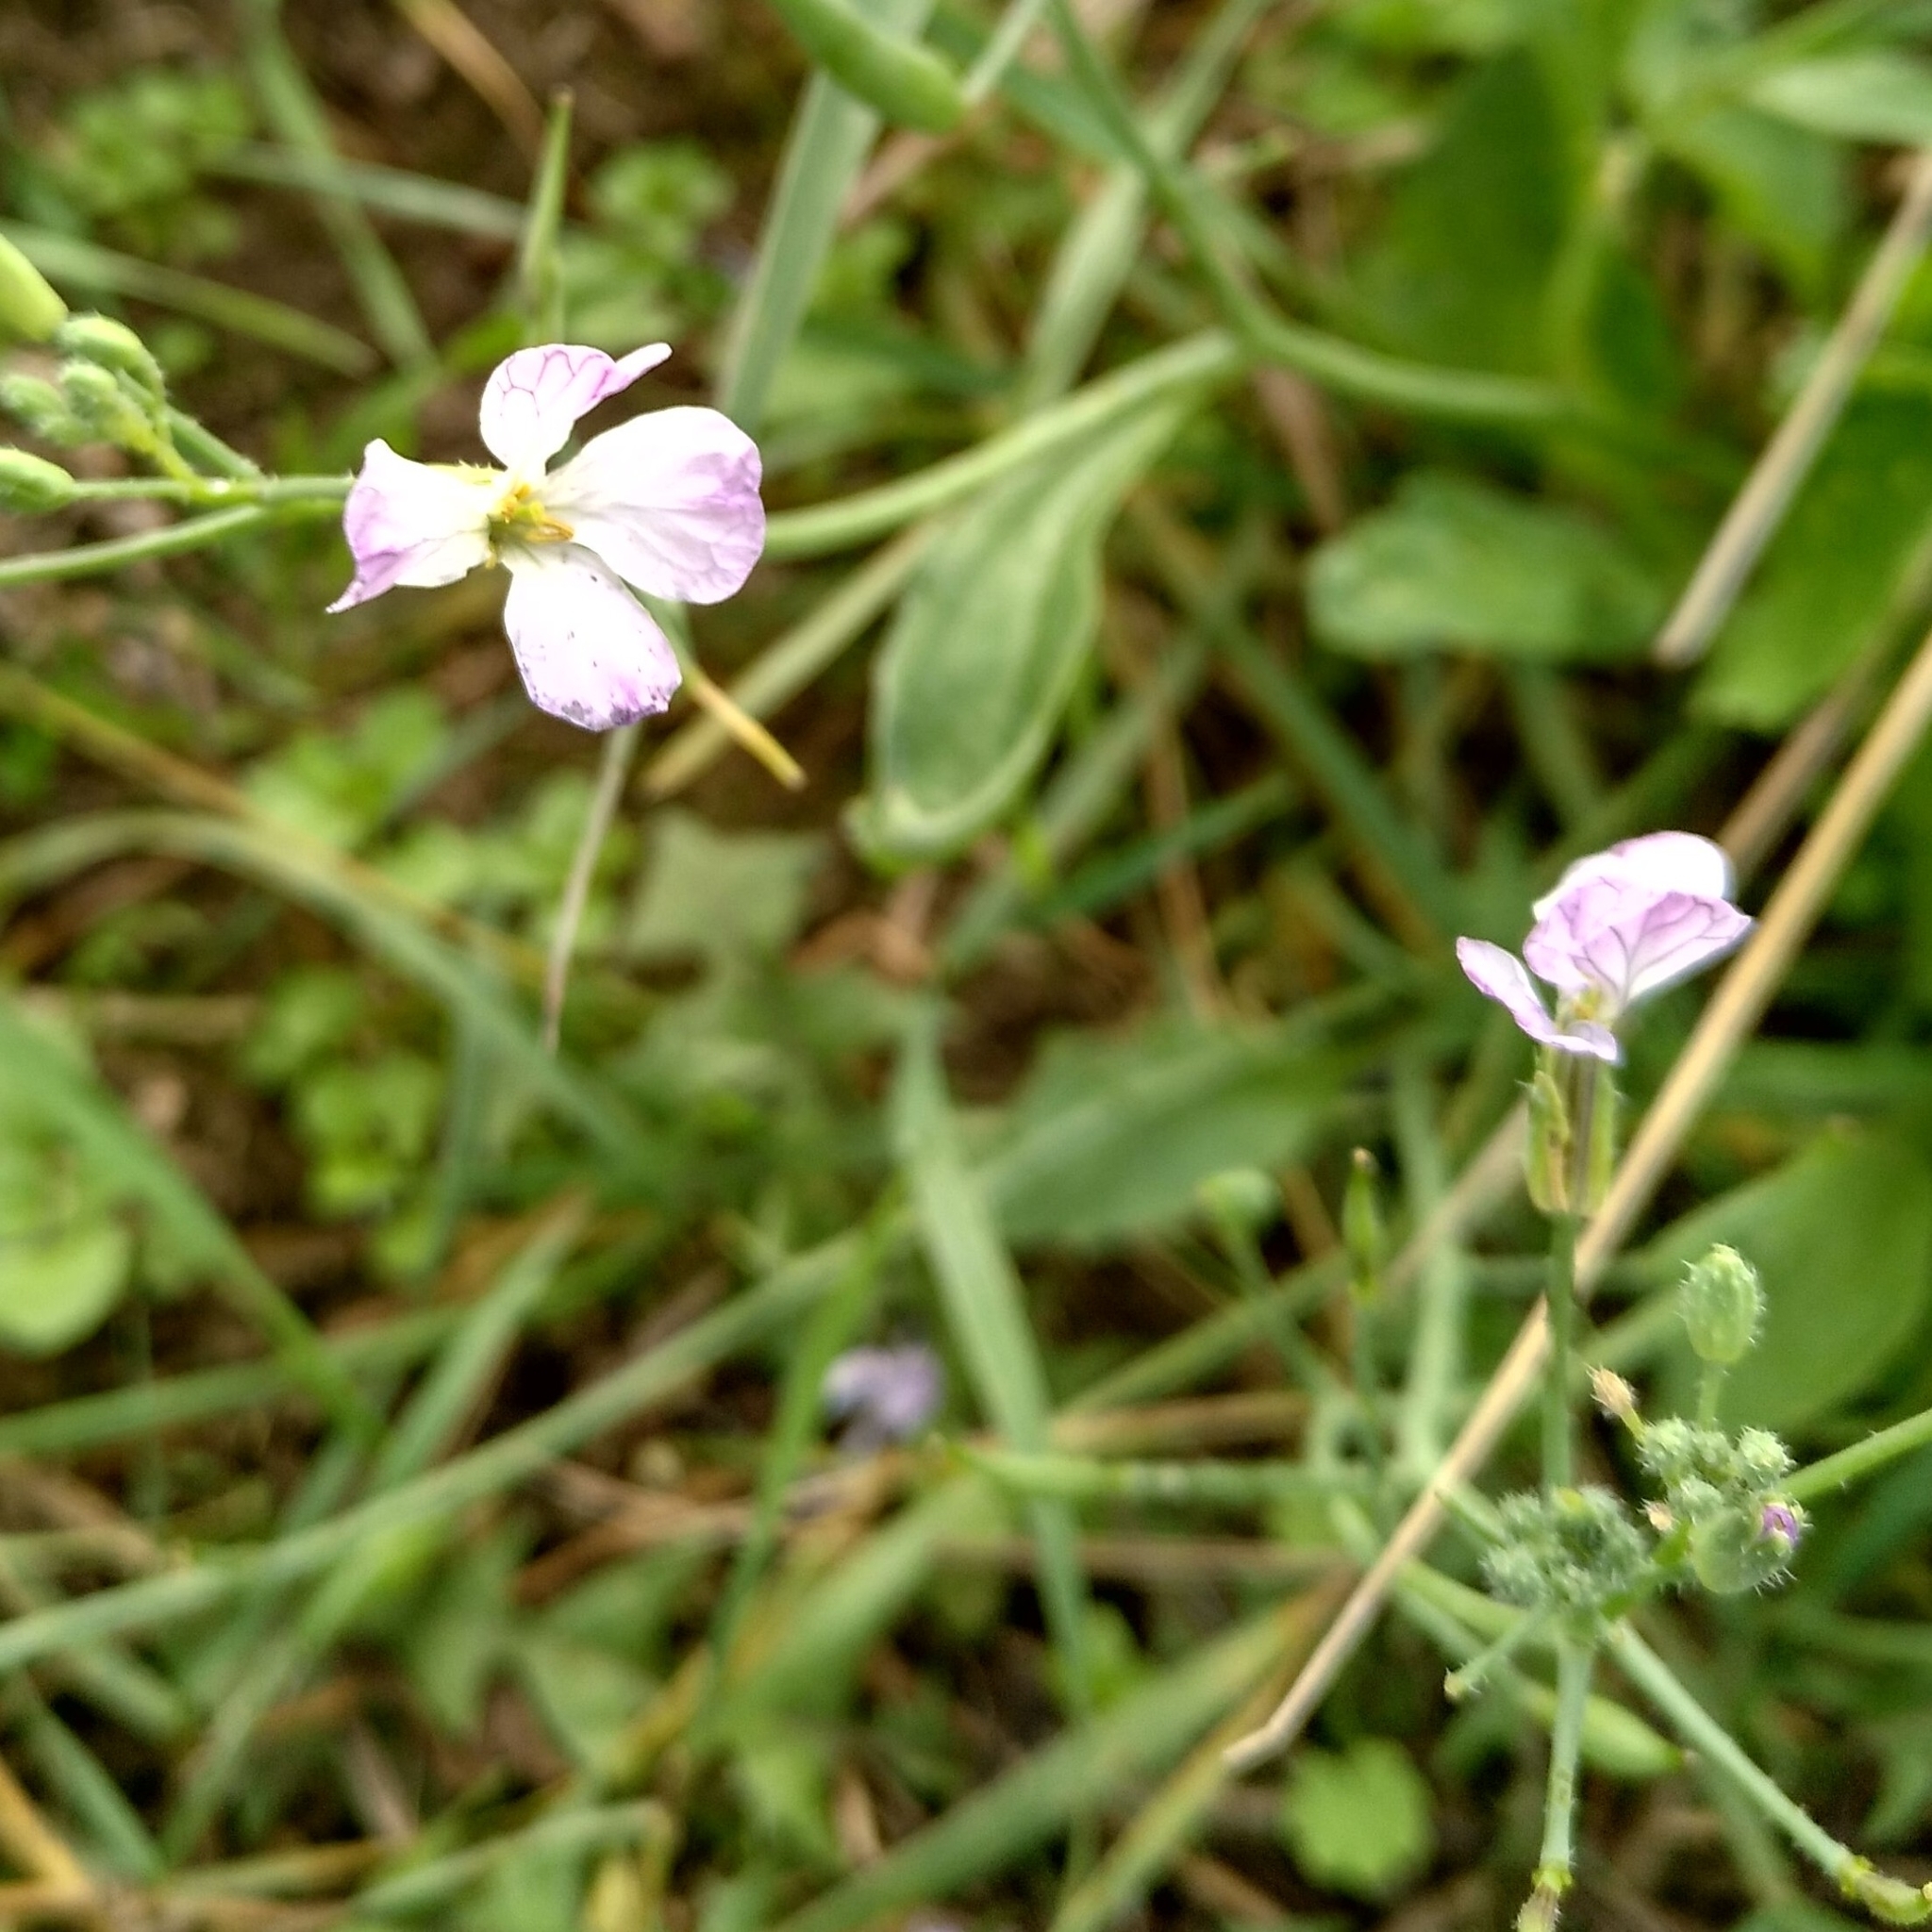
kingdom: Plantae
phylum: Tracheophyta
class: Magnoliopsida
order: Brassicales
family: Brassicaceae
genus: Raphanus
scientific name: Raphanus sativus
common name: Cultivated radish
